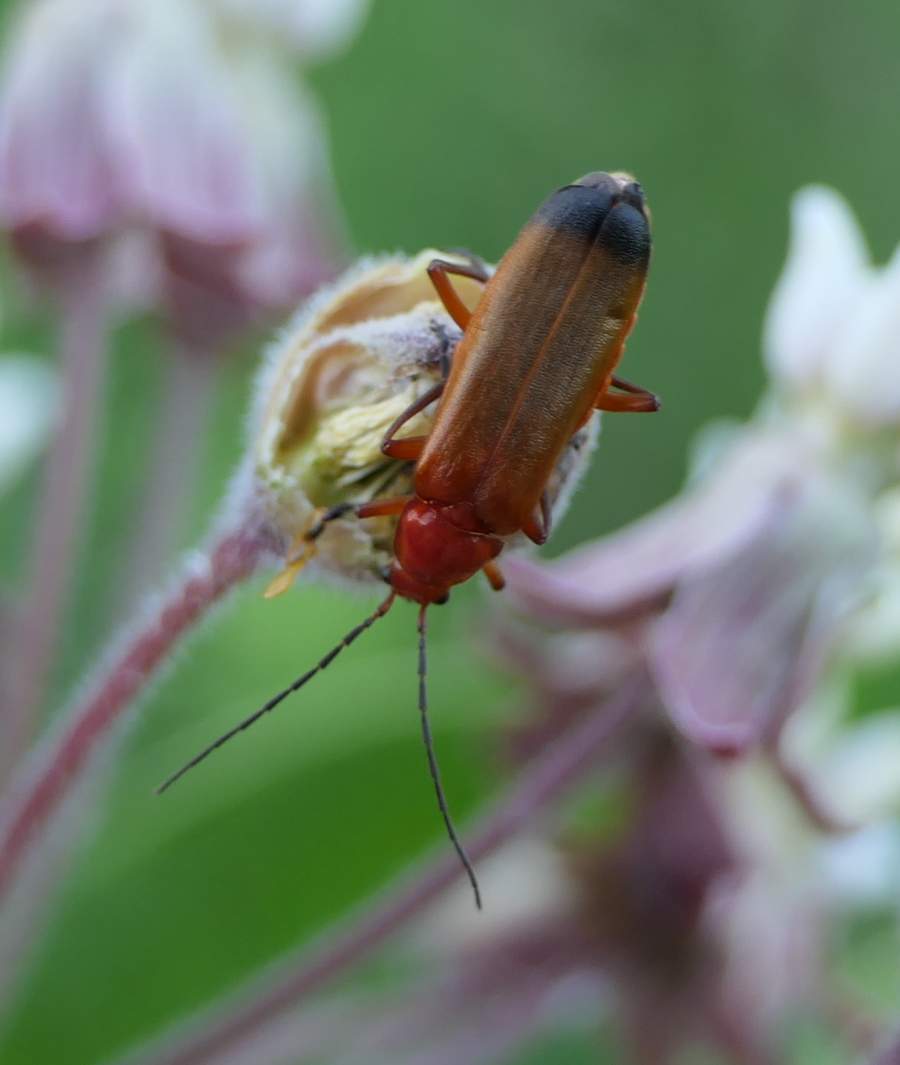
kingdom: Animalia
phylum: Arthropoda
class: Insecta
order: Coleoptera
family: Cantharidae
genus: Rhagonycha
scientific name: Rhagonycha fulva
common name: Common red soldier beetle
